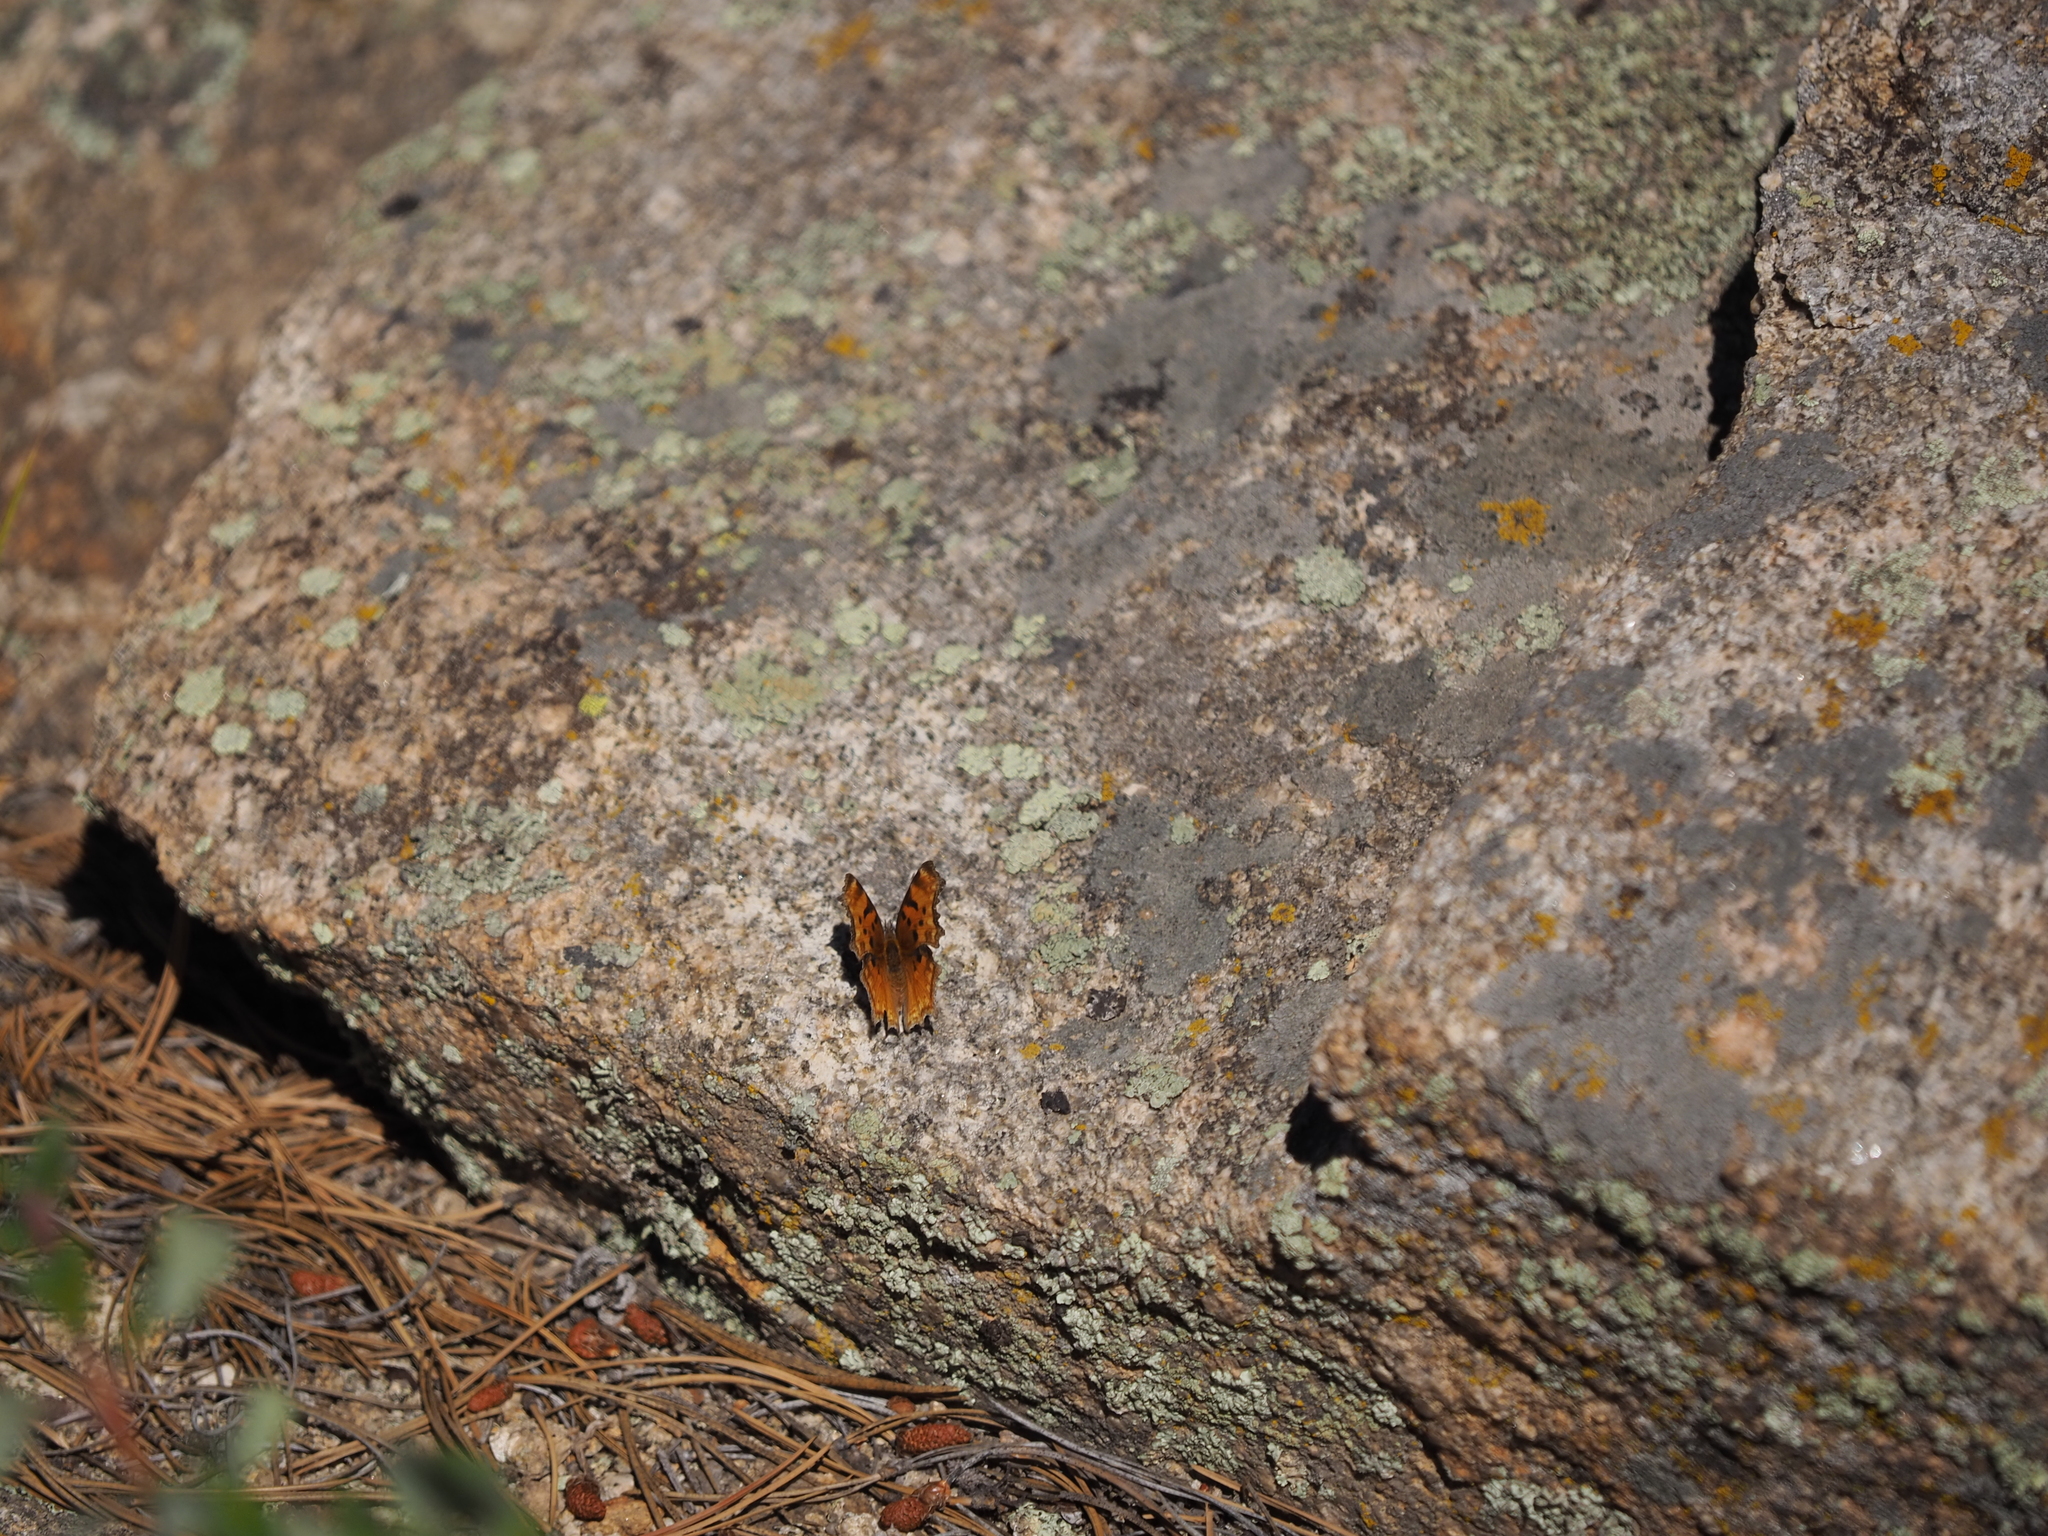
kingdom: Animalia
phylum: Arthropoda
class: Insecta
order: Lepidoptera
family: Nymphalidae
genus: Polygonia
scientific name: Polygonia gracilis
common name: Hoary comma
